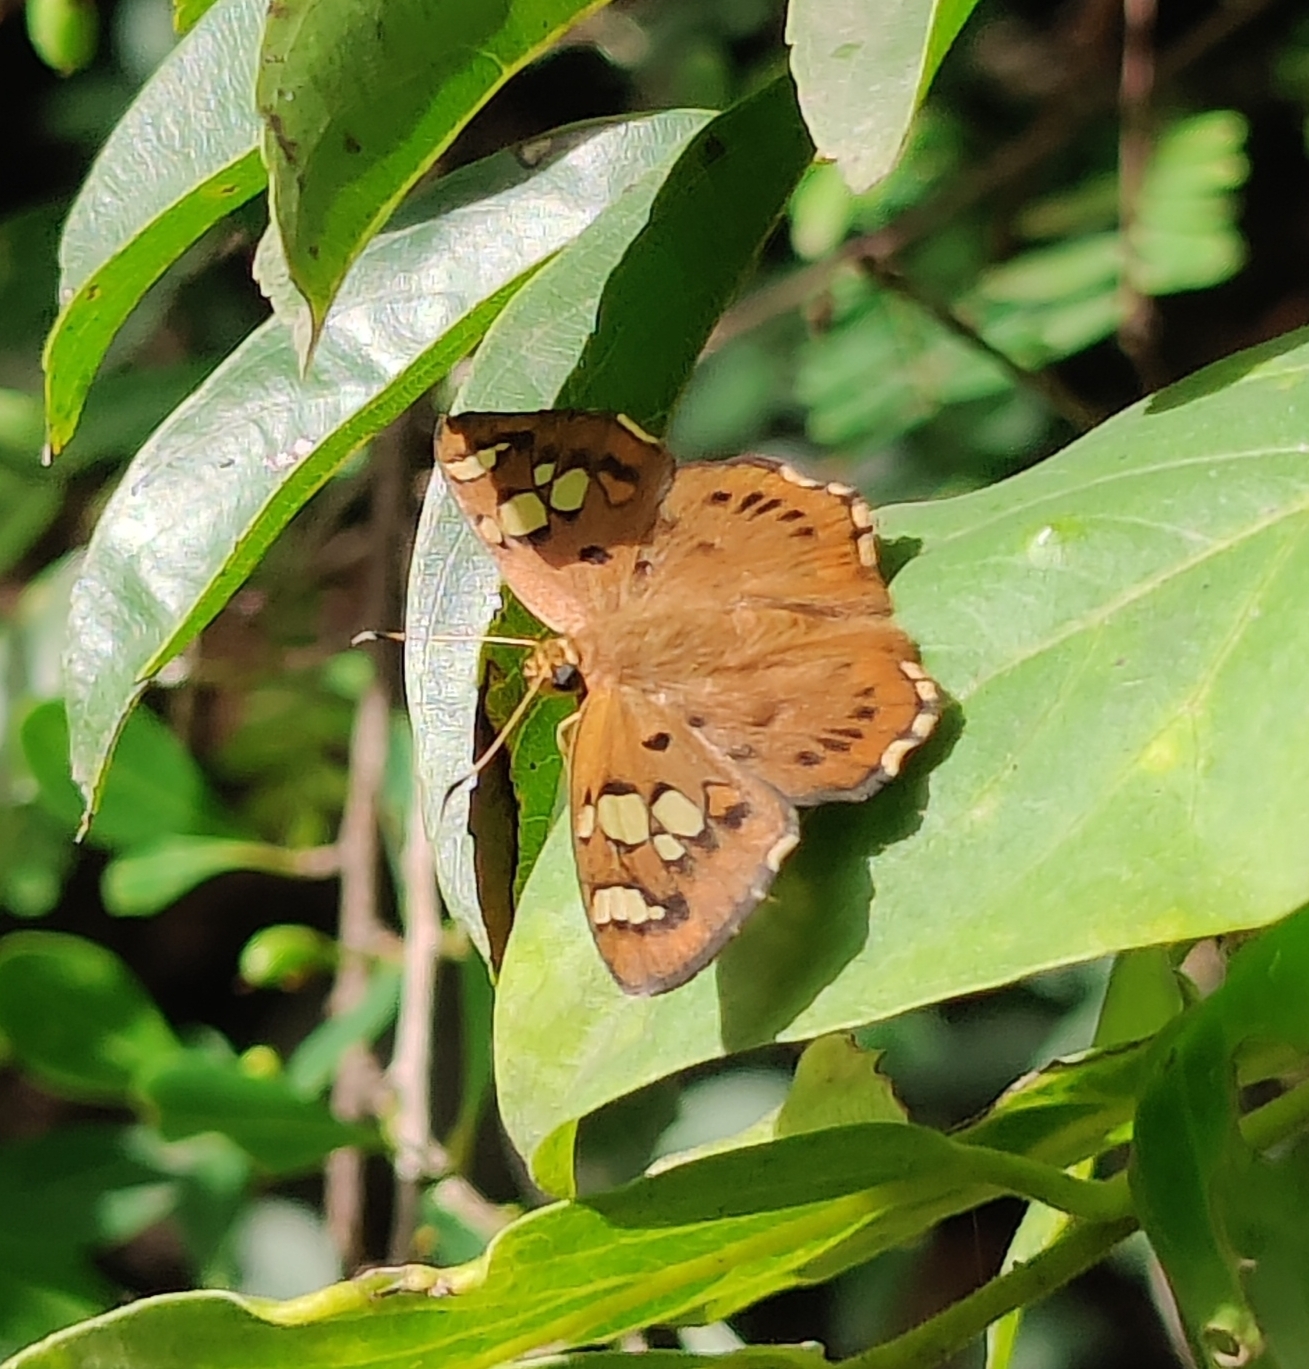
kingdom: Animalia
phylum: Arthropoda
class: Insecta
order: Lepidoptera
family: Hesperiidae
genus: Coladenia
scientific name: Coladenia
